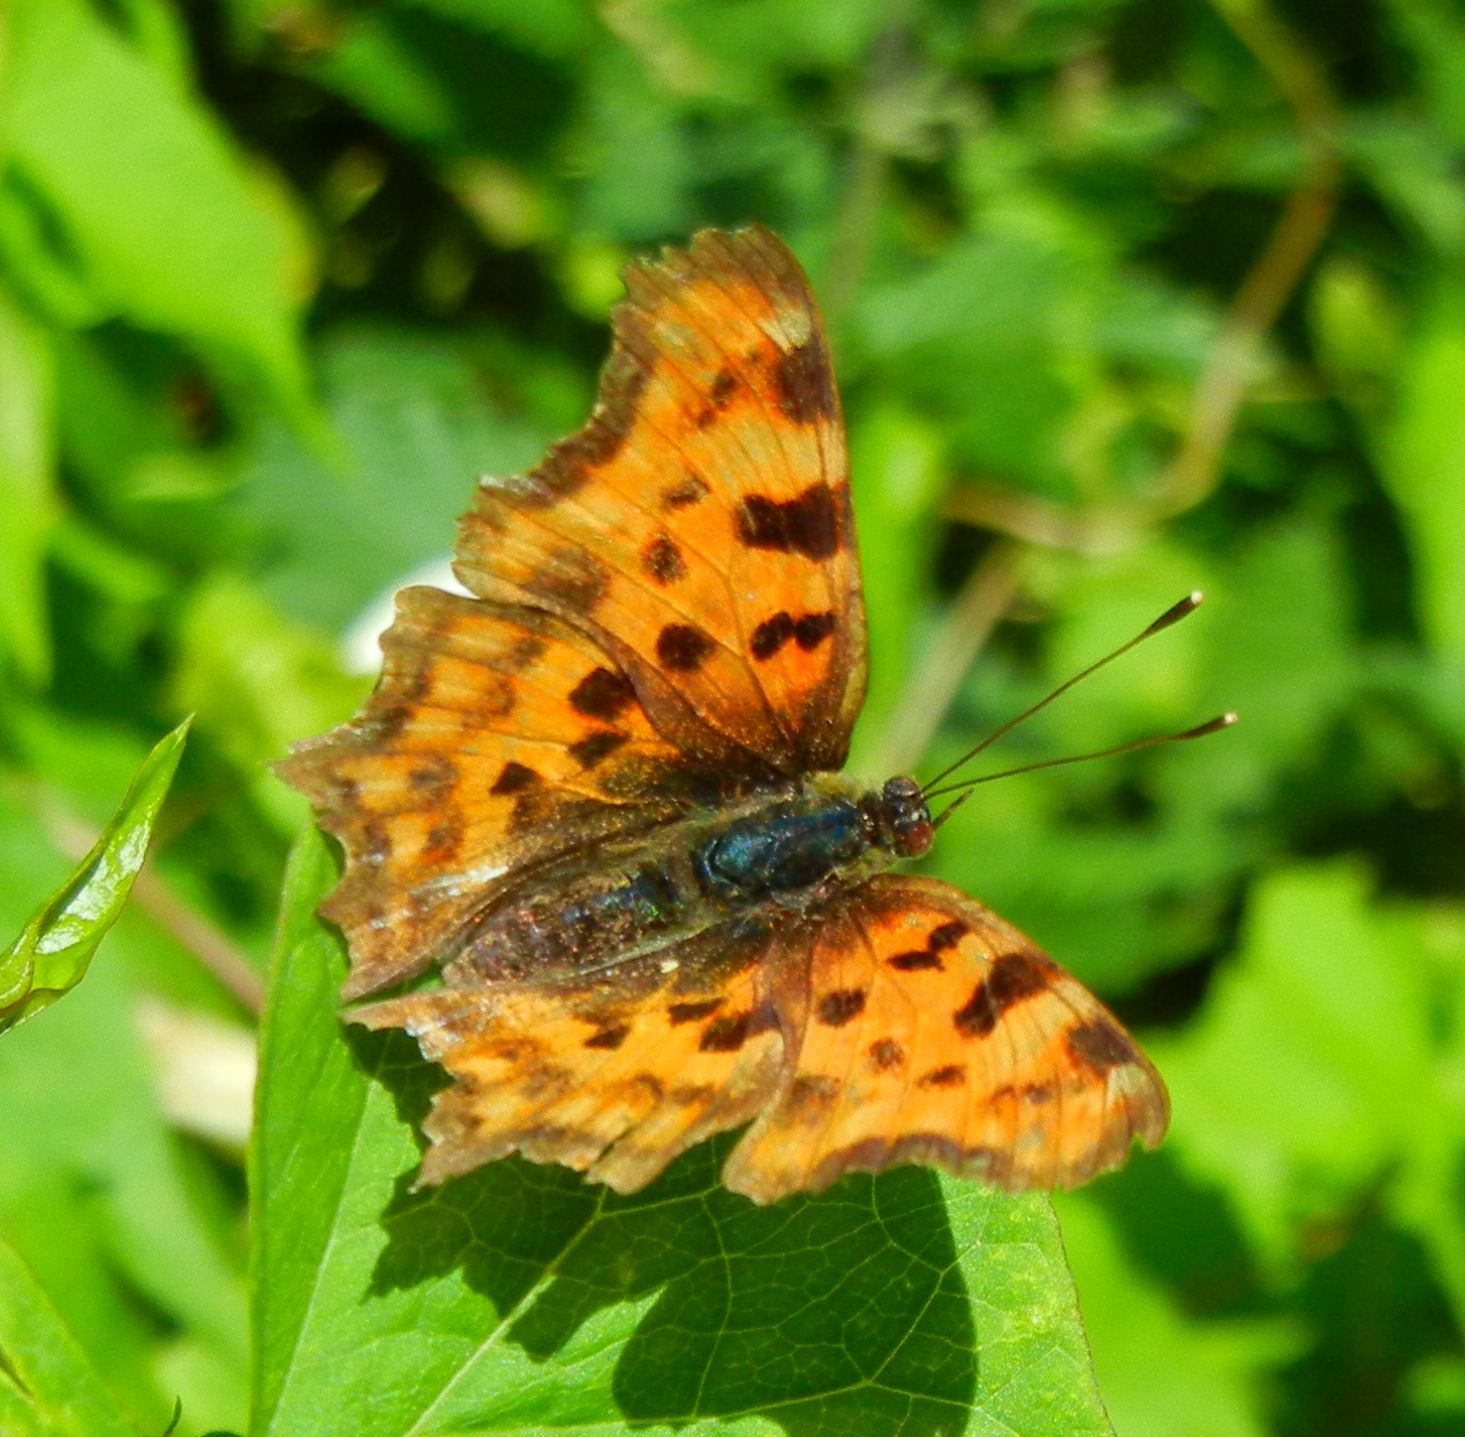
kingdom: Animalia
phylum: Arthropoda
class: Insecta
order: Lepidoptera
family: Nymphalidae
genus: Polygonia
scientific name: Polygonia c-album
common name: Comma
